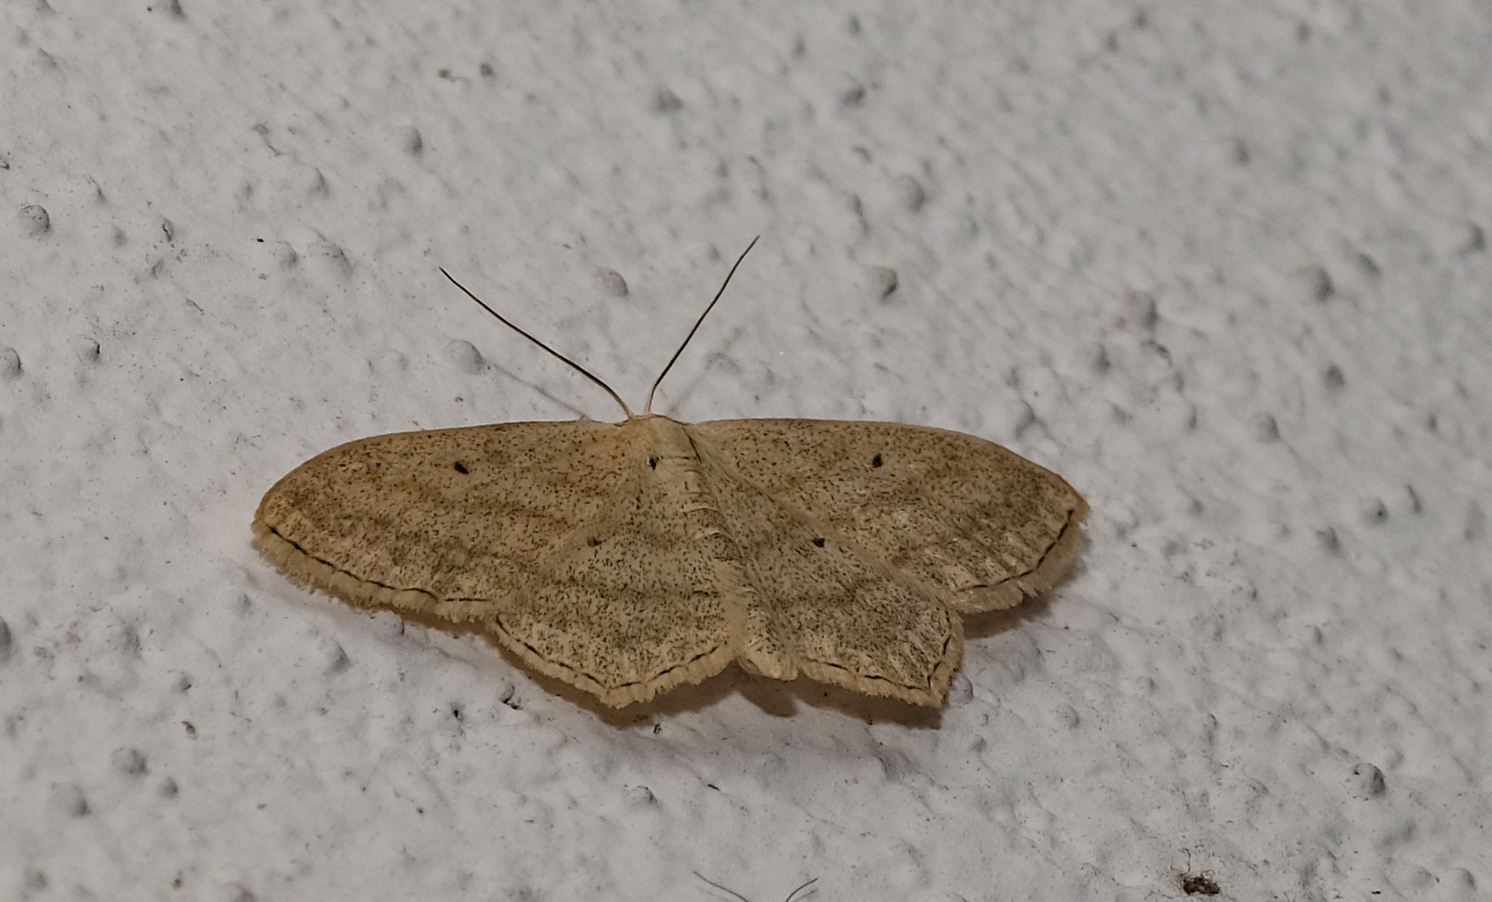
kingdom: Animalia
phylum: Arthropoda
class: Insecta
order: Lepidoptera
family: Geometridae
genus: Scopula
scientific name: Scopula nigropunctata
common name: Sub-angled wave
